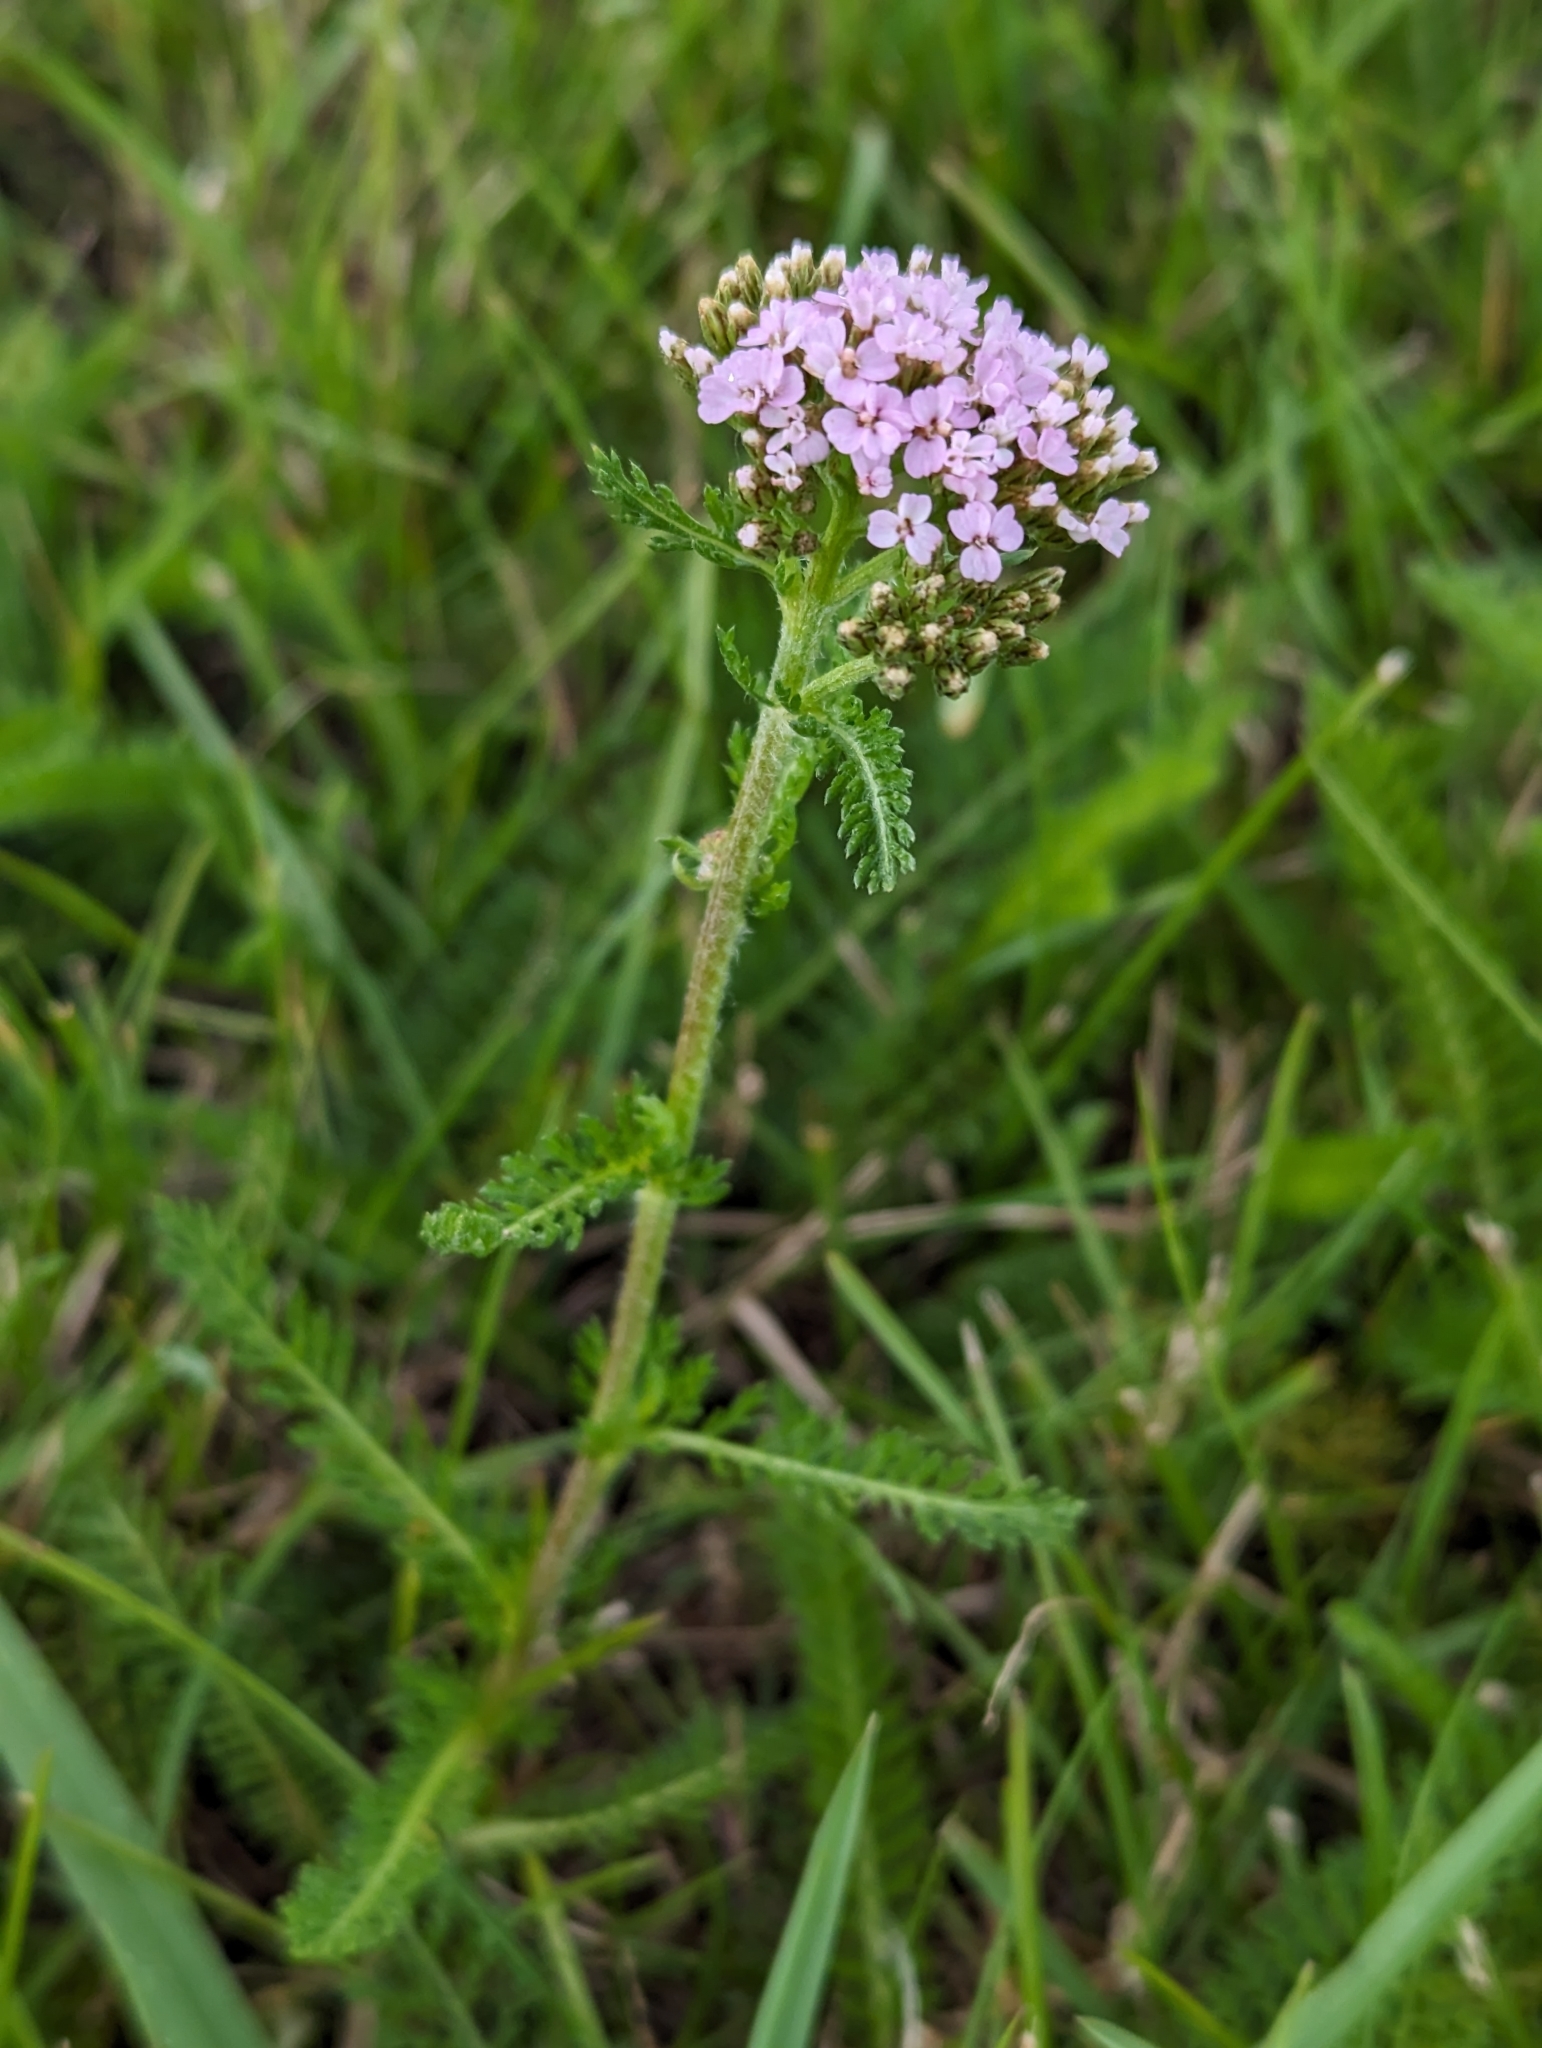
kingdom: Plantae
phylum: Tracheophyta
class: Magnoliopsida
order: Asterales
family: Asteraceae
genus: Achillea
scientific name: Achillea millefolium
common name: Yarrow
